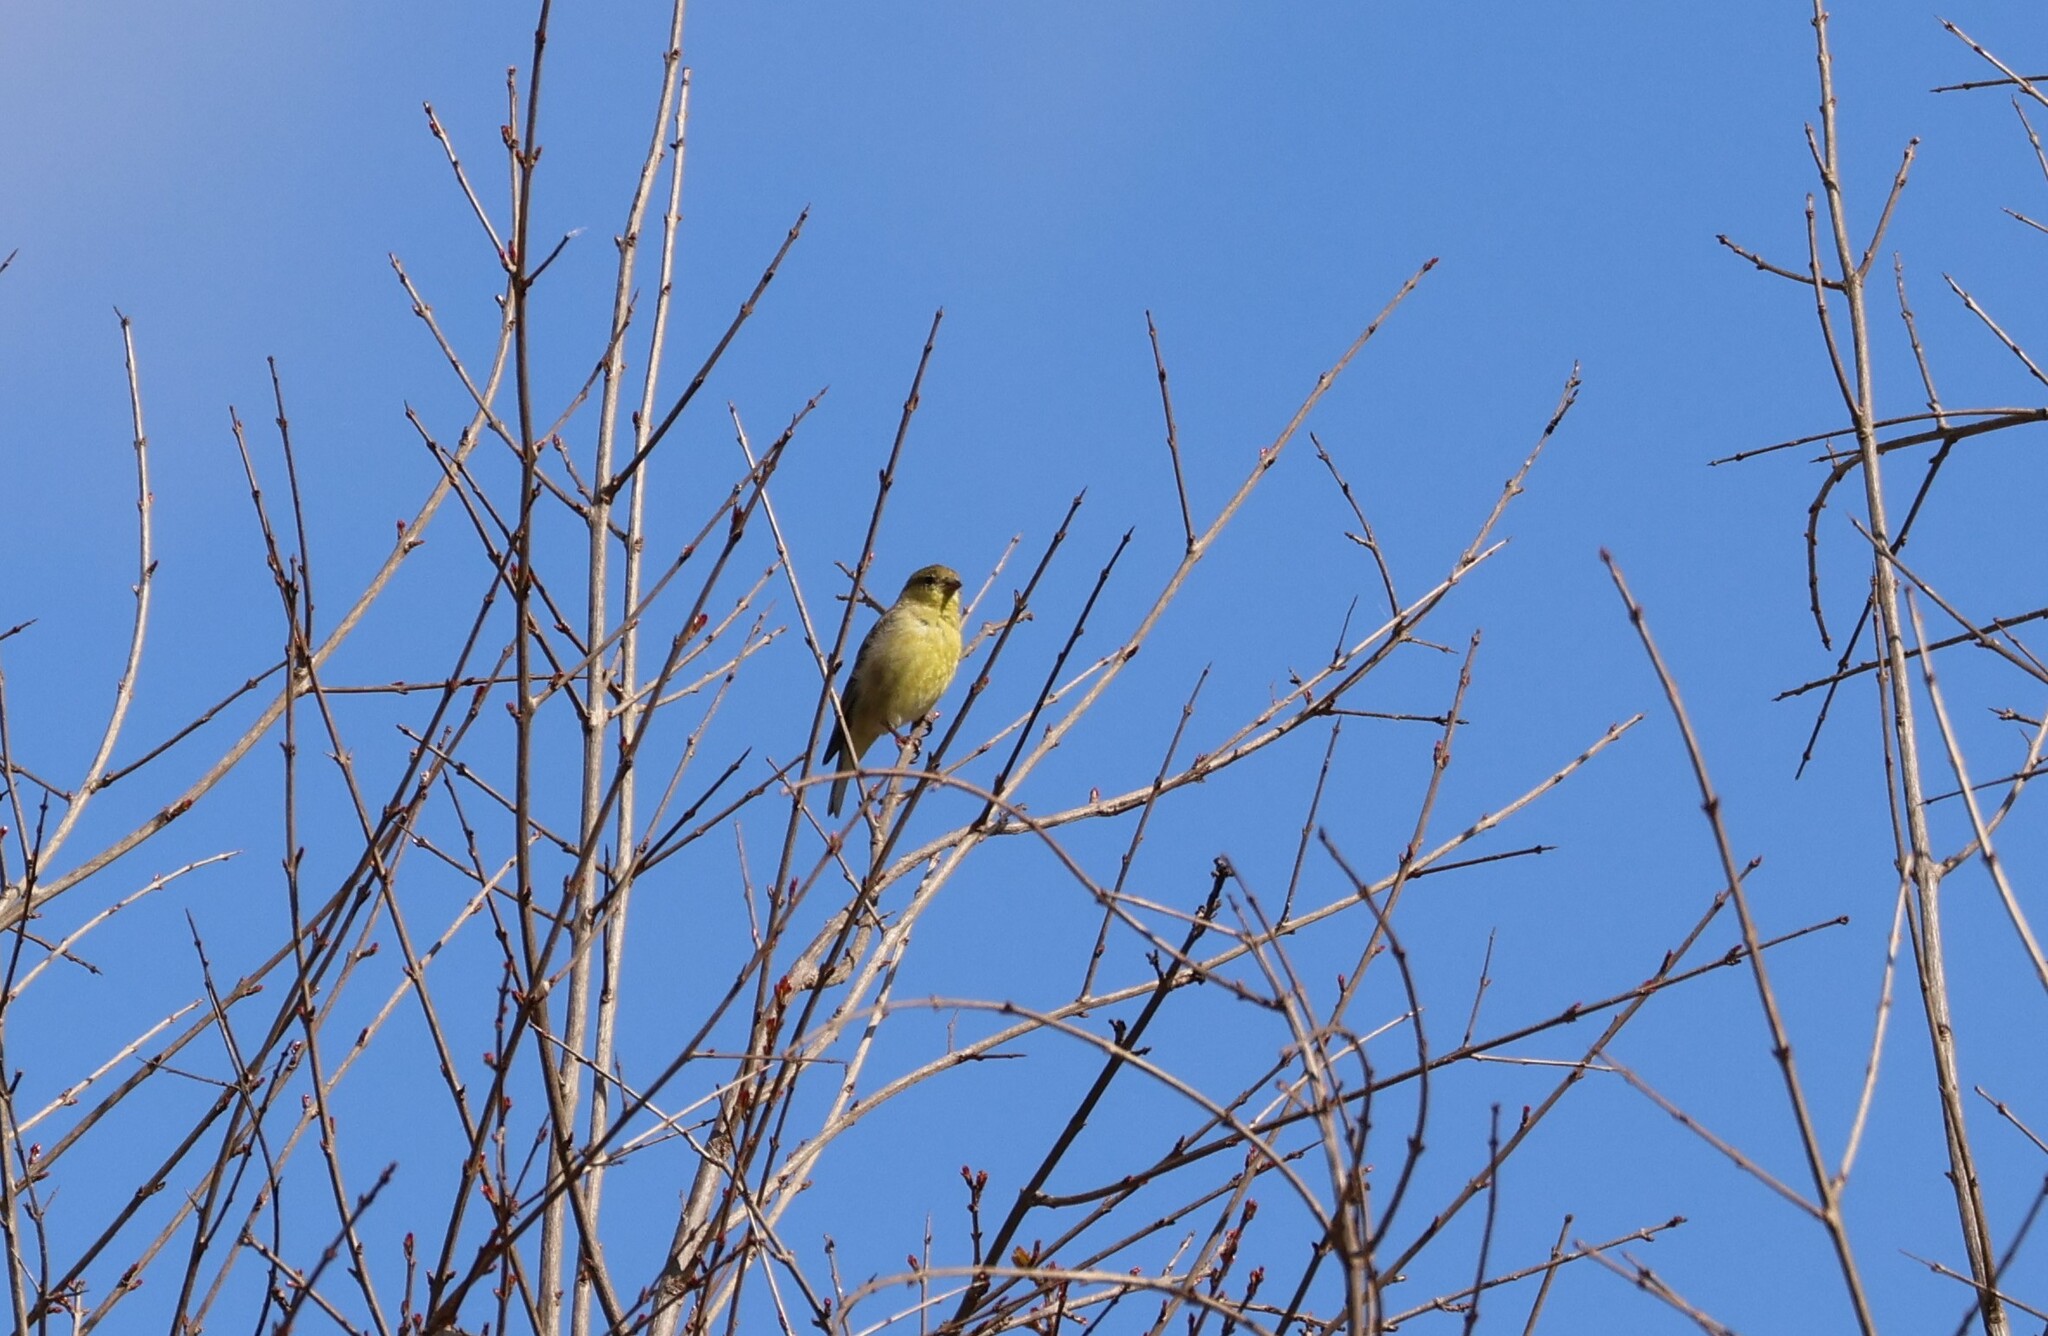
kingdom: Animalia
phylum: Chordata
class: Aves
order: Passeriformes
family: Fringillidae
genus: Spinus
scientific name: Spinus psaltria
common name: Lesser goldfinch
